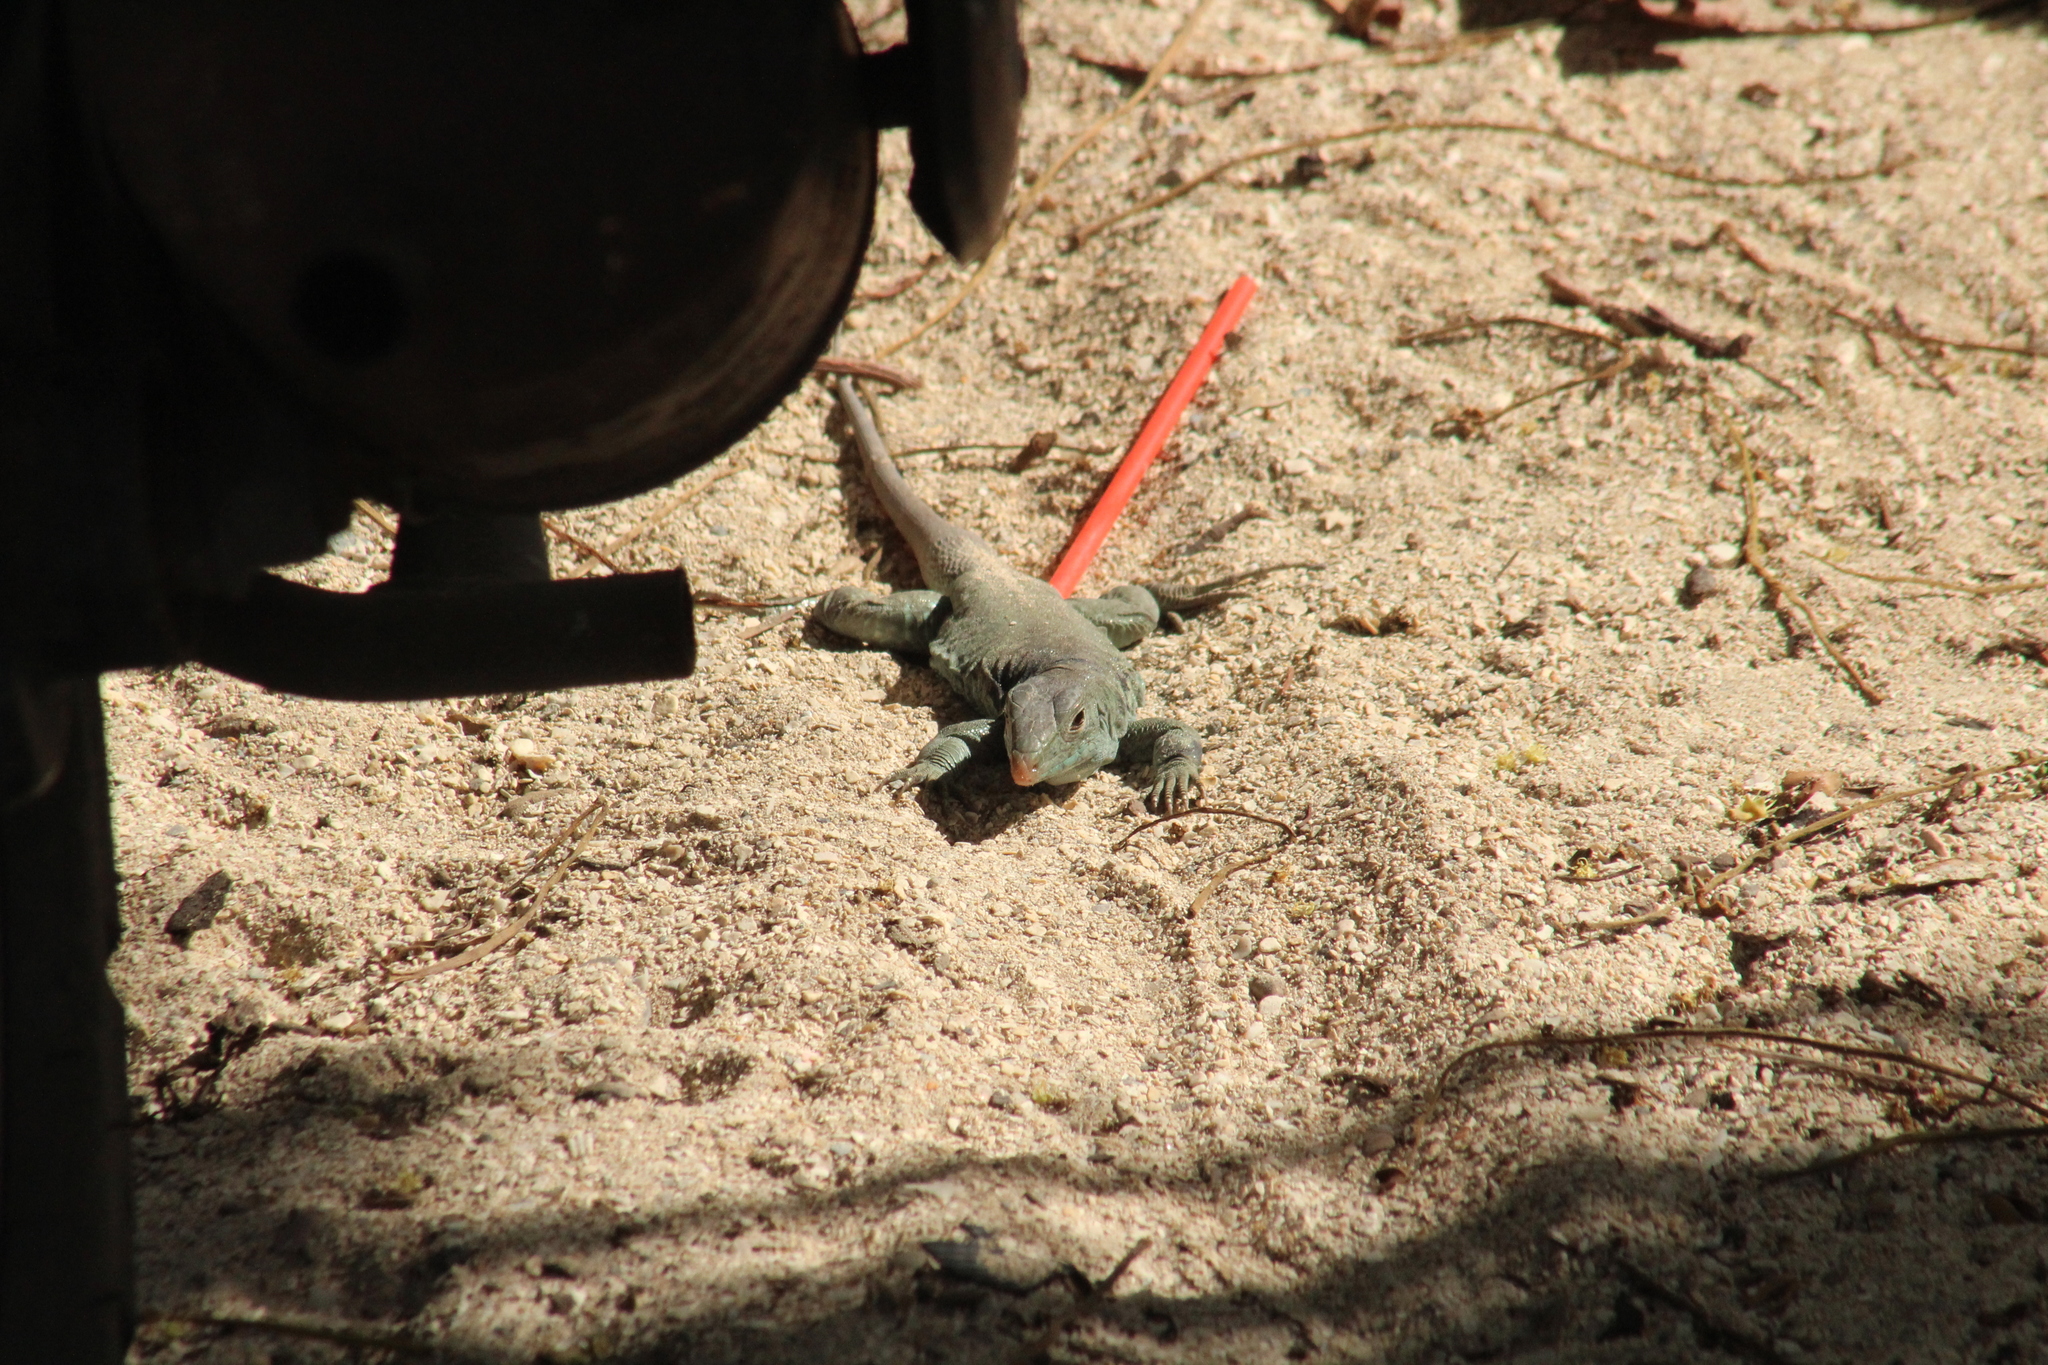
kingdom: Animalia
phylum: Chordata
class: Squamata
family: Teiidae
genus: Pholidoscelis
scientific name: Pholidoscelis plei
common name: Anguilla bank ameiva
